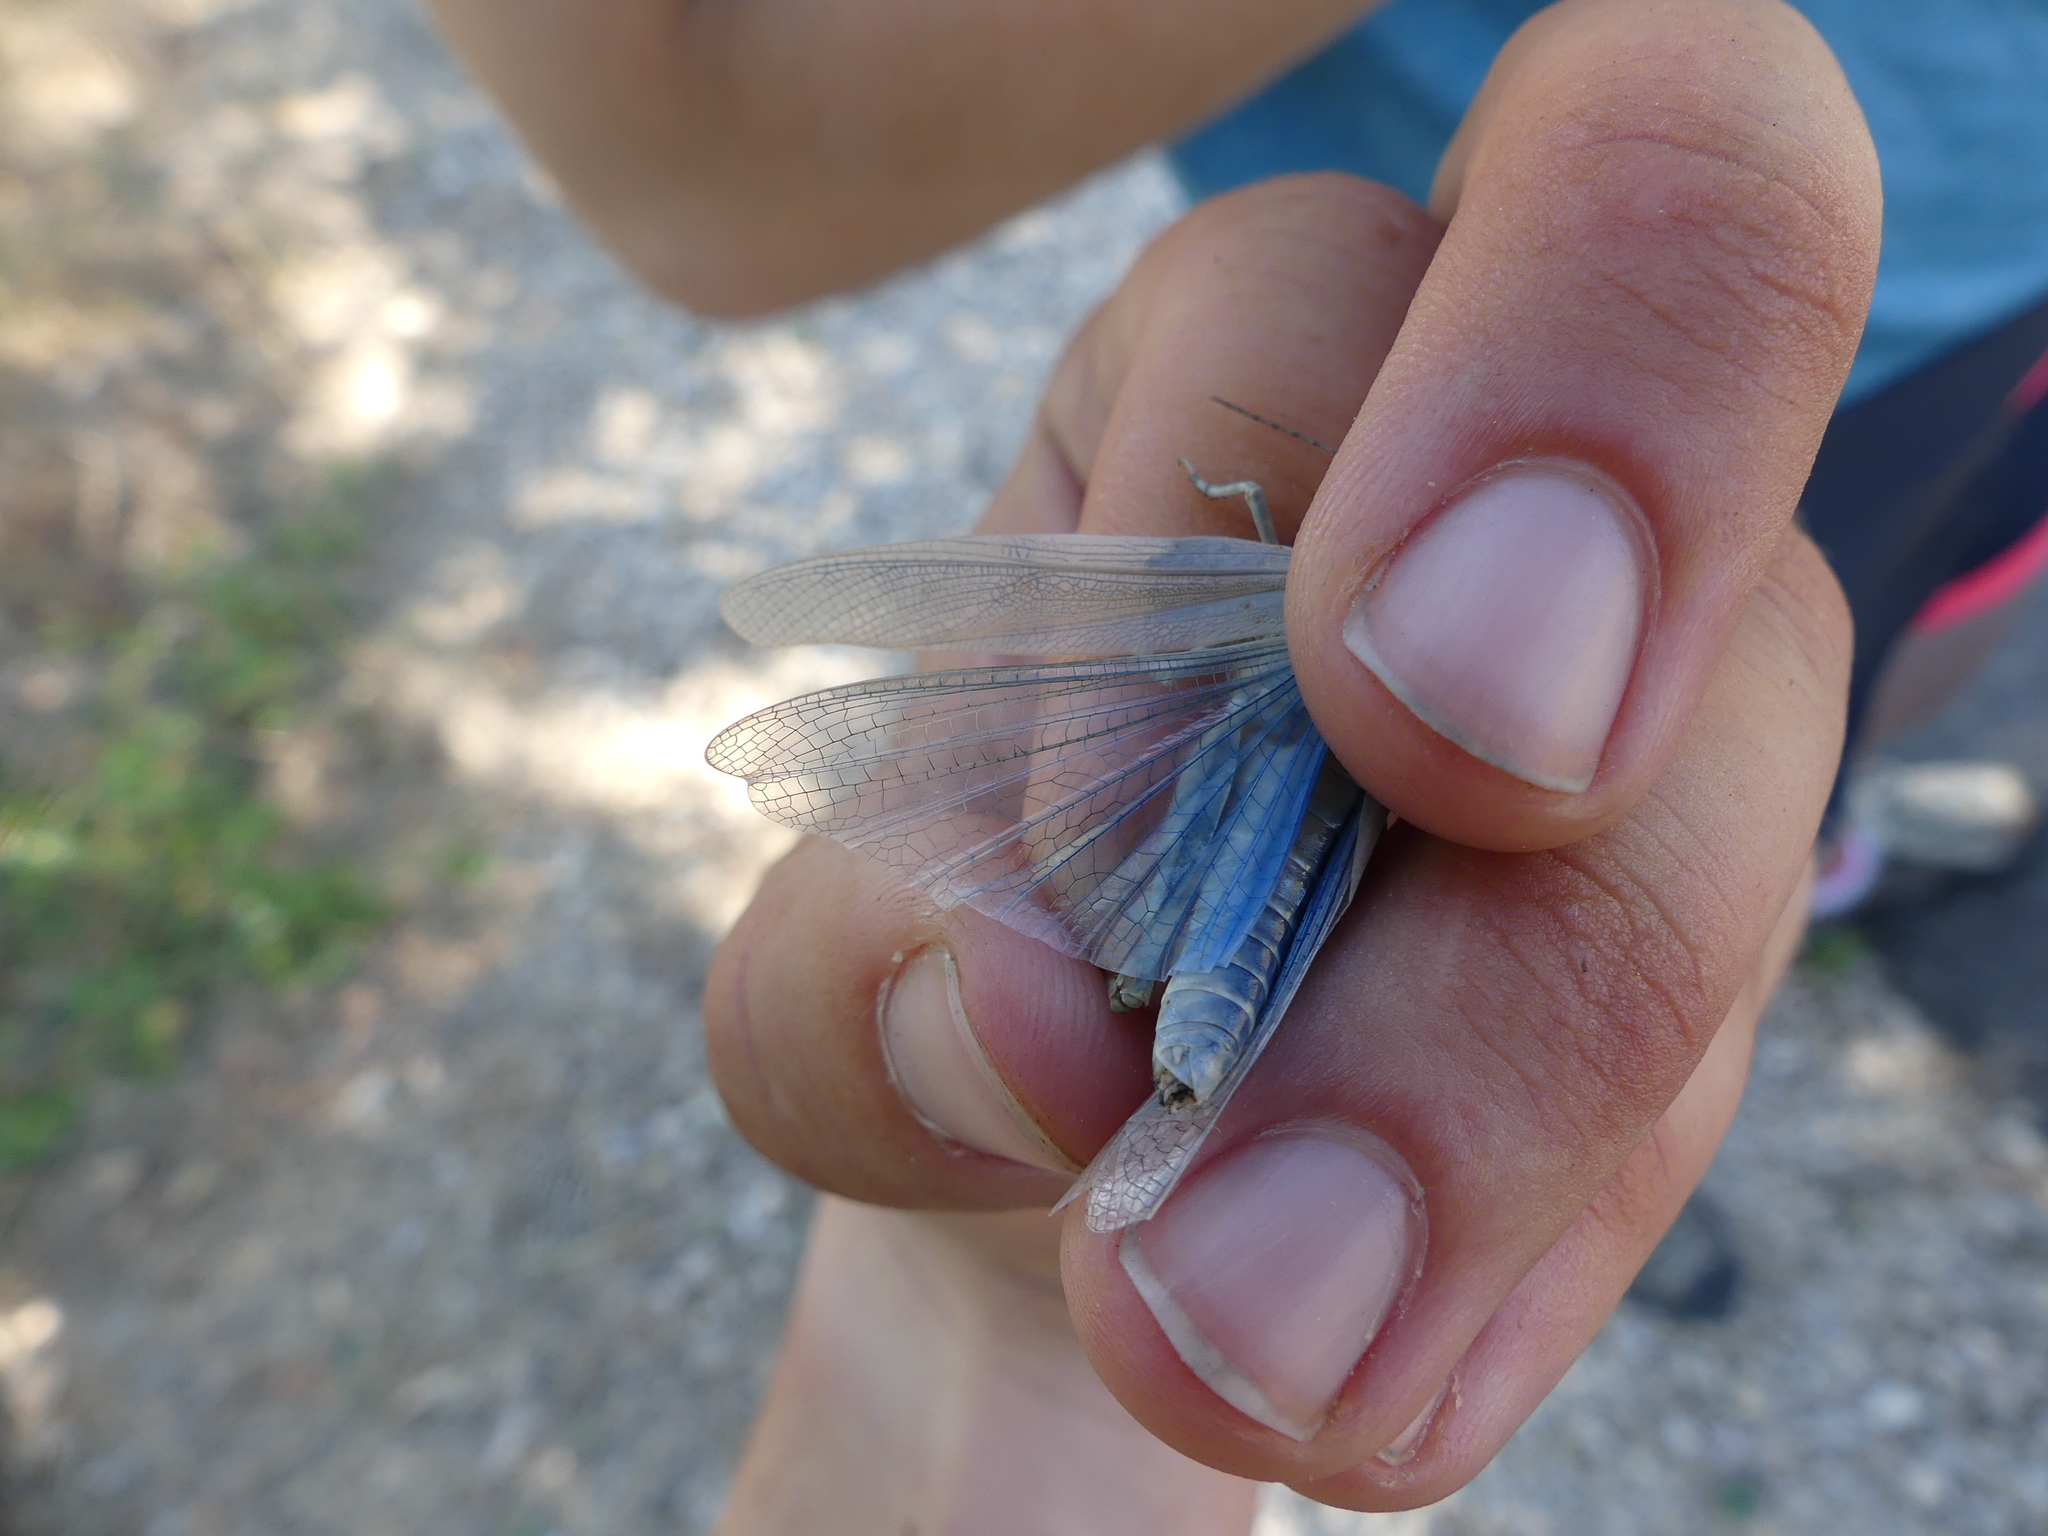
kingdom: Animalia
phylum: Arthropoda
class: Insecta
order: Orthoptera
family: Acrididae
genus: Sphingonotus
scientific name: Sphingonotus caerulans
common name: Blue-winged locust
